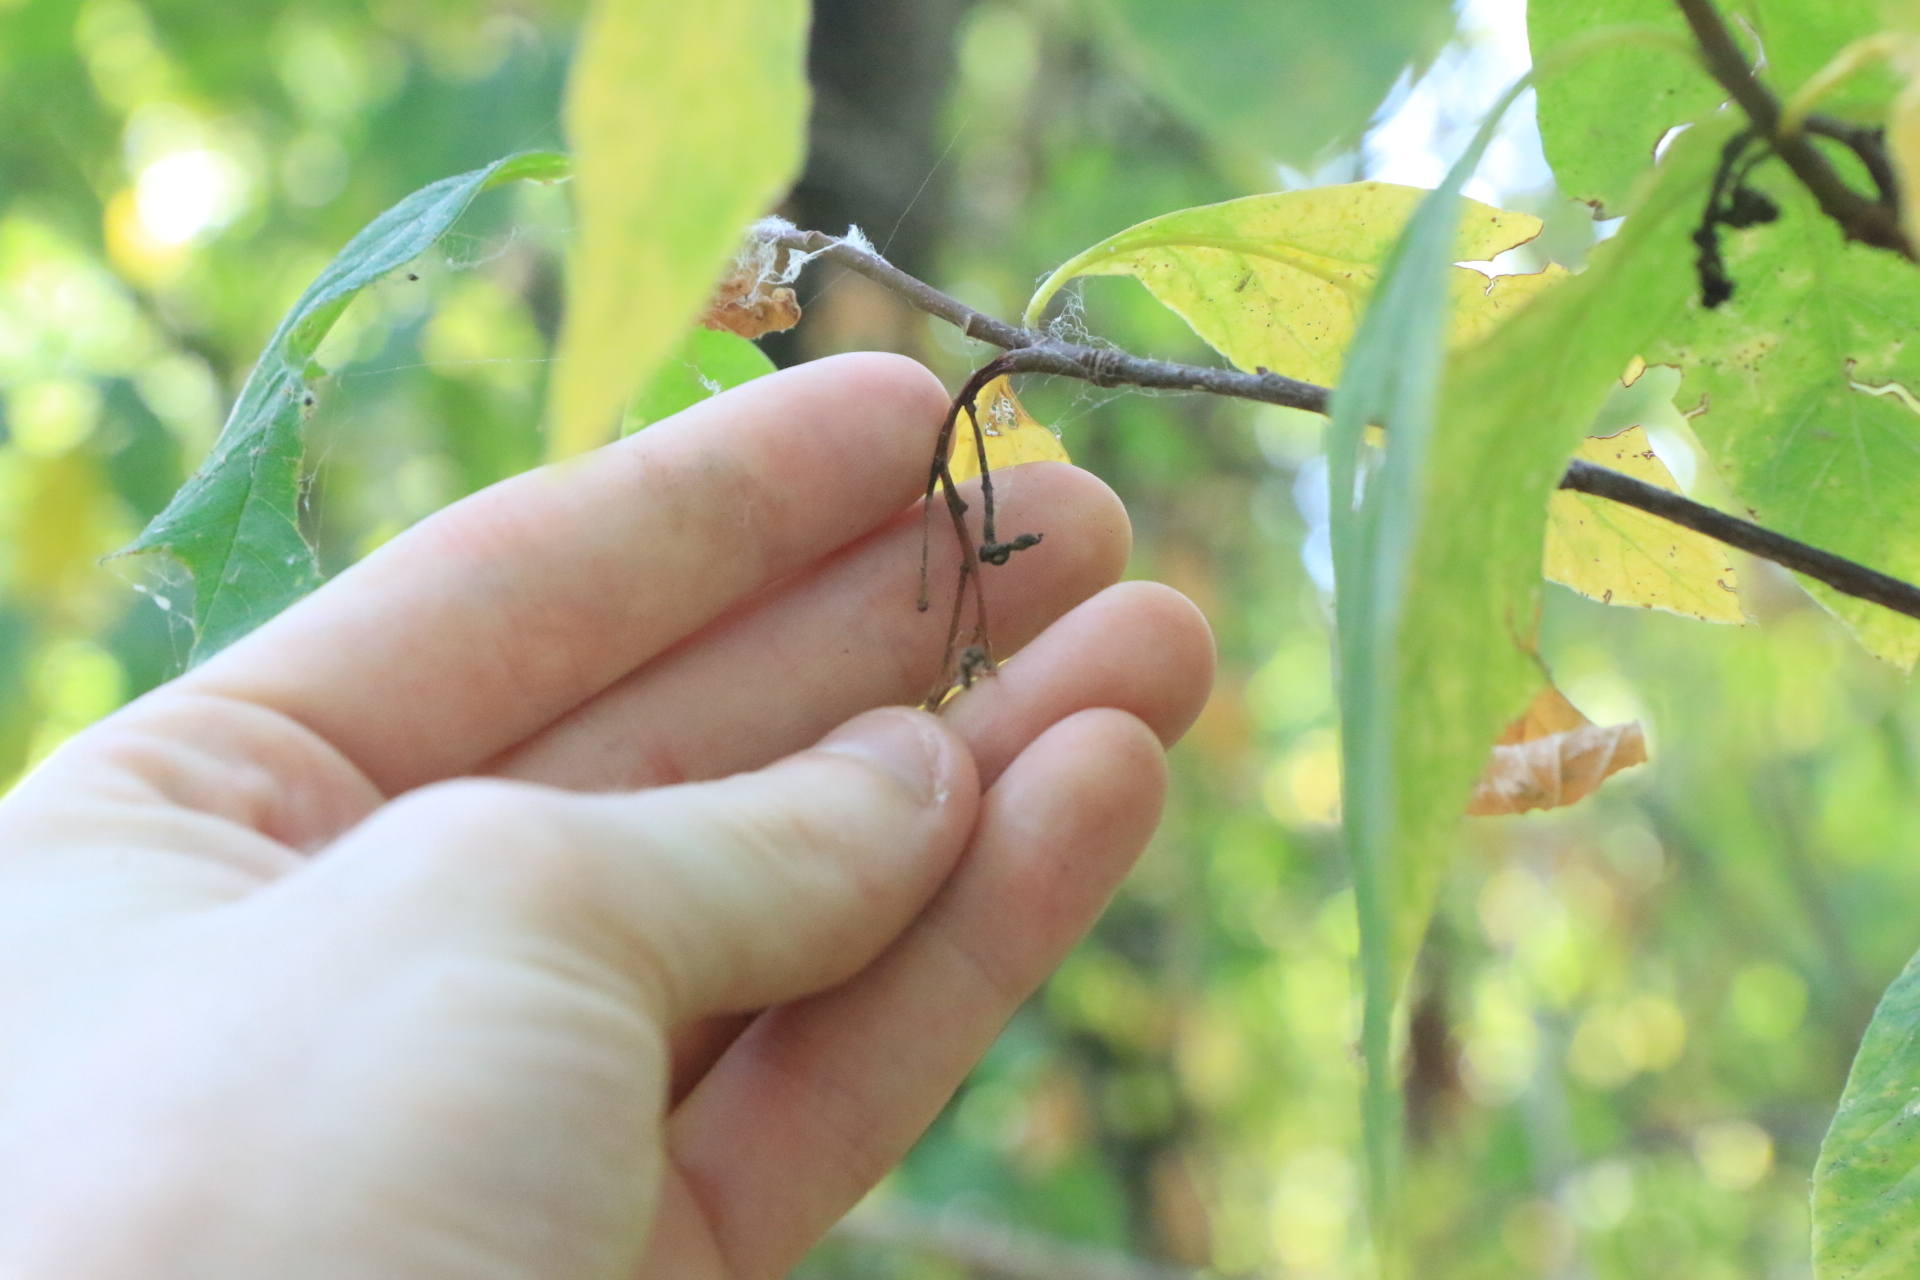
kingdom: Plantae
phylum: Tracheophyta
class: Magnoliopsida
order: Rosales
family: Rosaceae
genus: Oemleria
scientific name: Oemleria cerasiformis
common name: Osoberry
